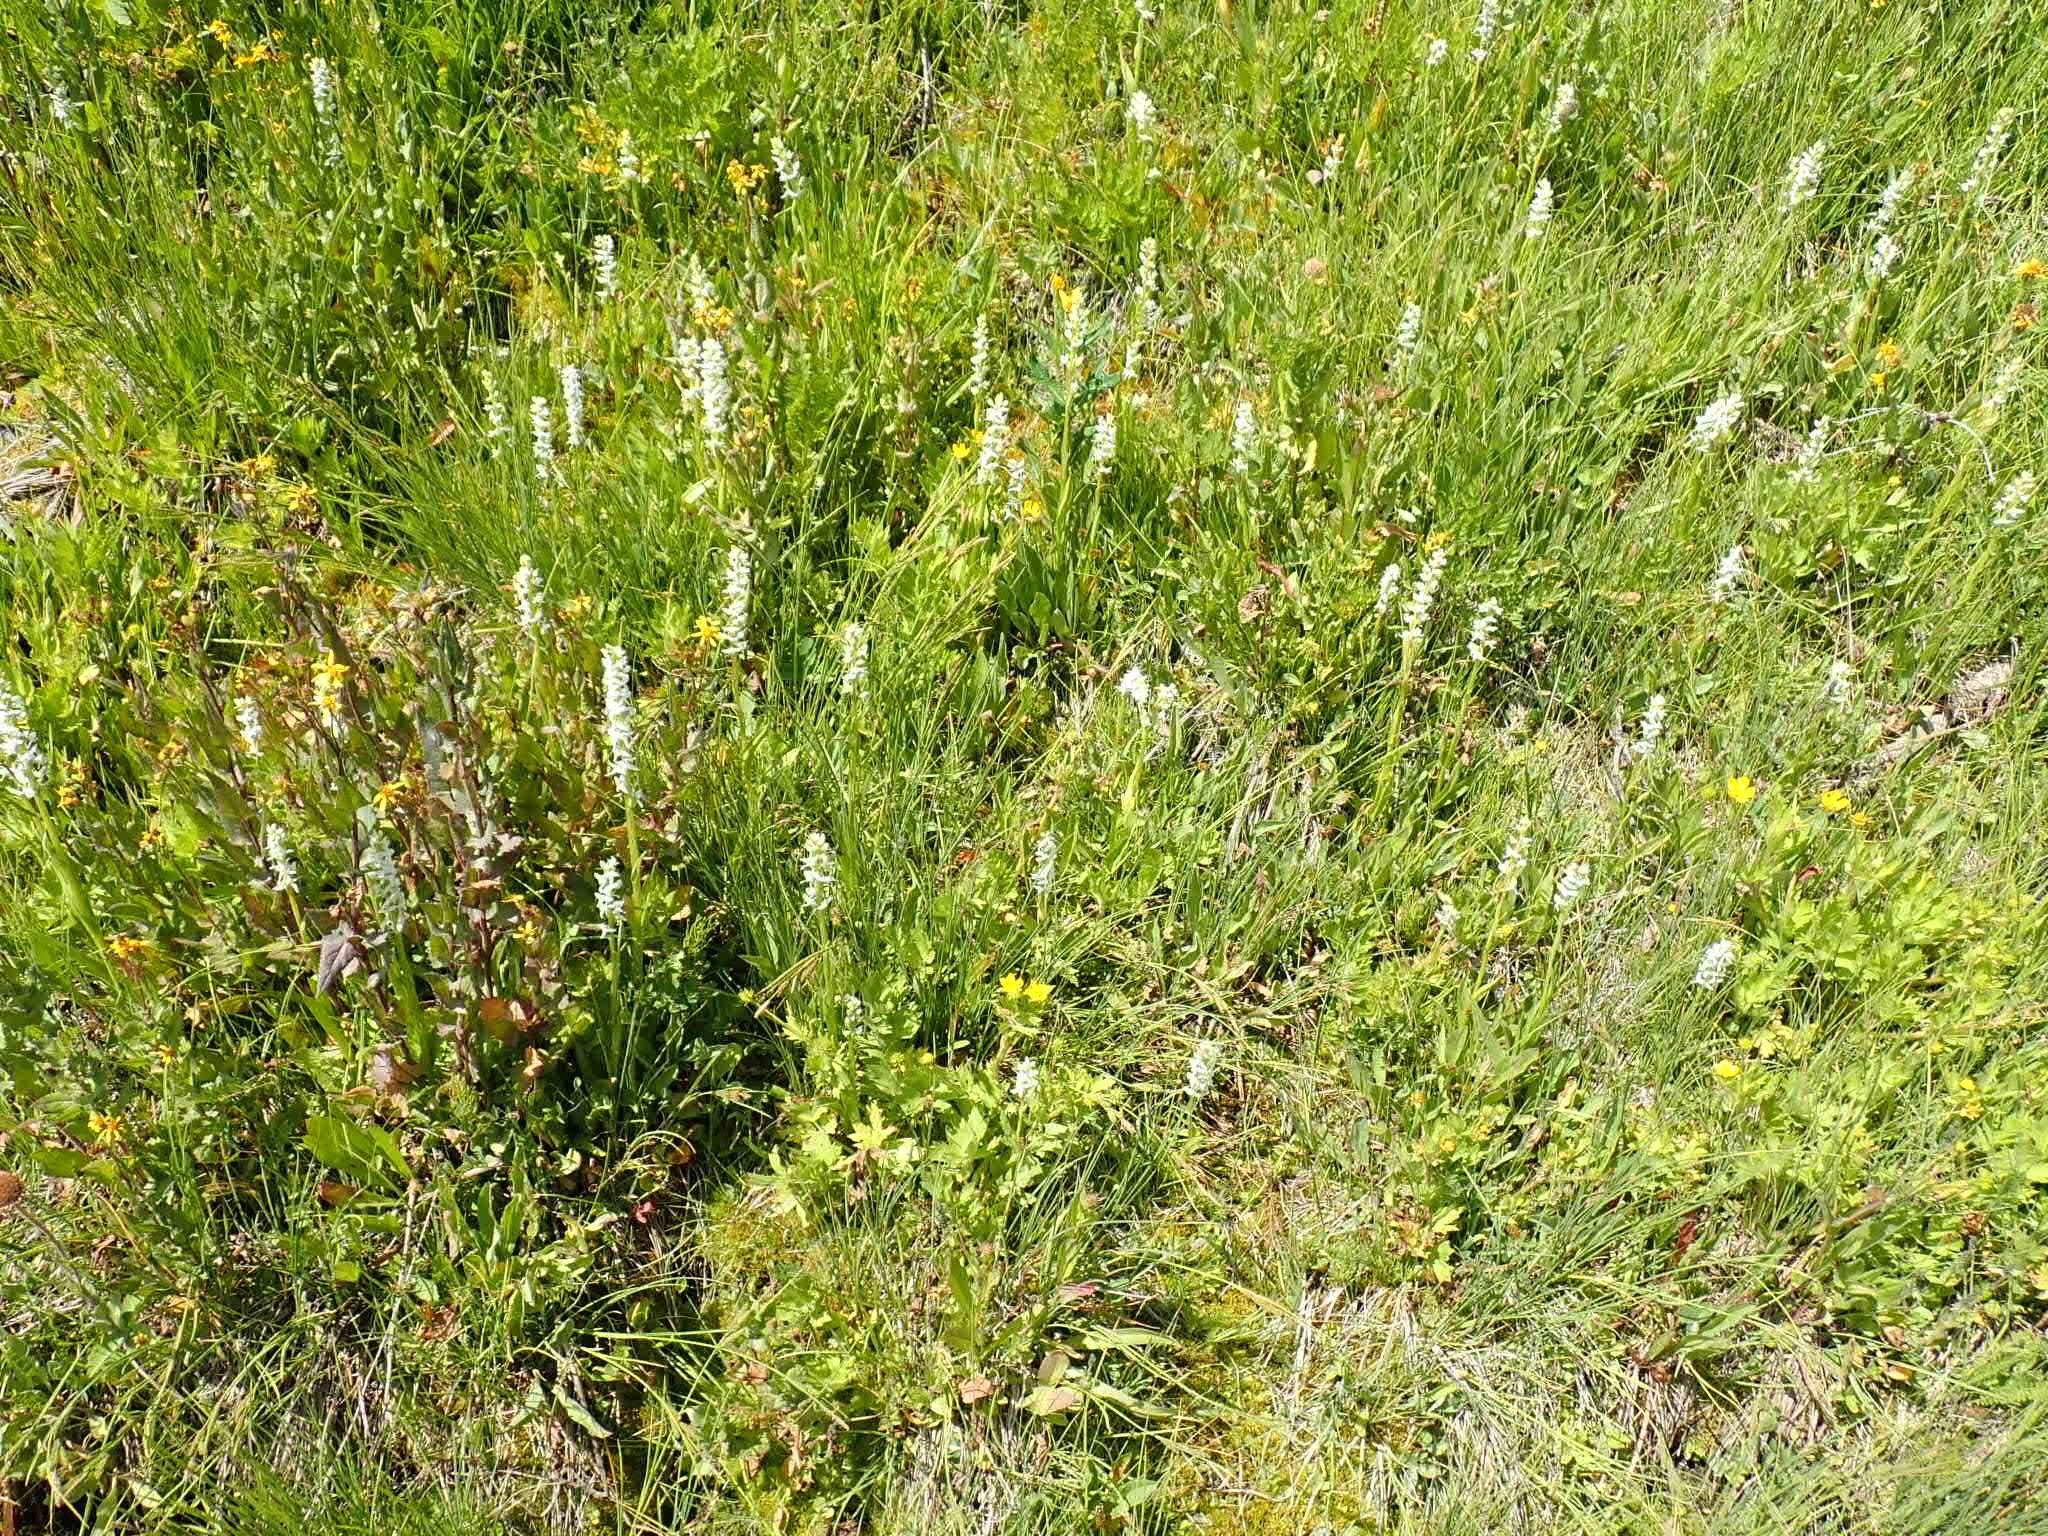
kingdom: Plantae
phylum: Tracheophyta
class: Liliopsida
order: Asparagales
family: Orchidaceae
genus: Platanthera
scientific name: Platanthera dilatata
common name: Bog candles
